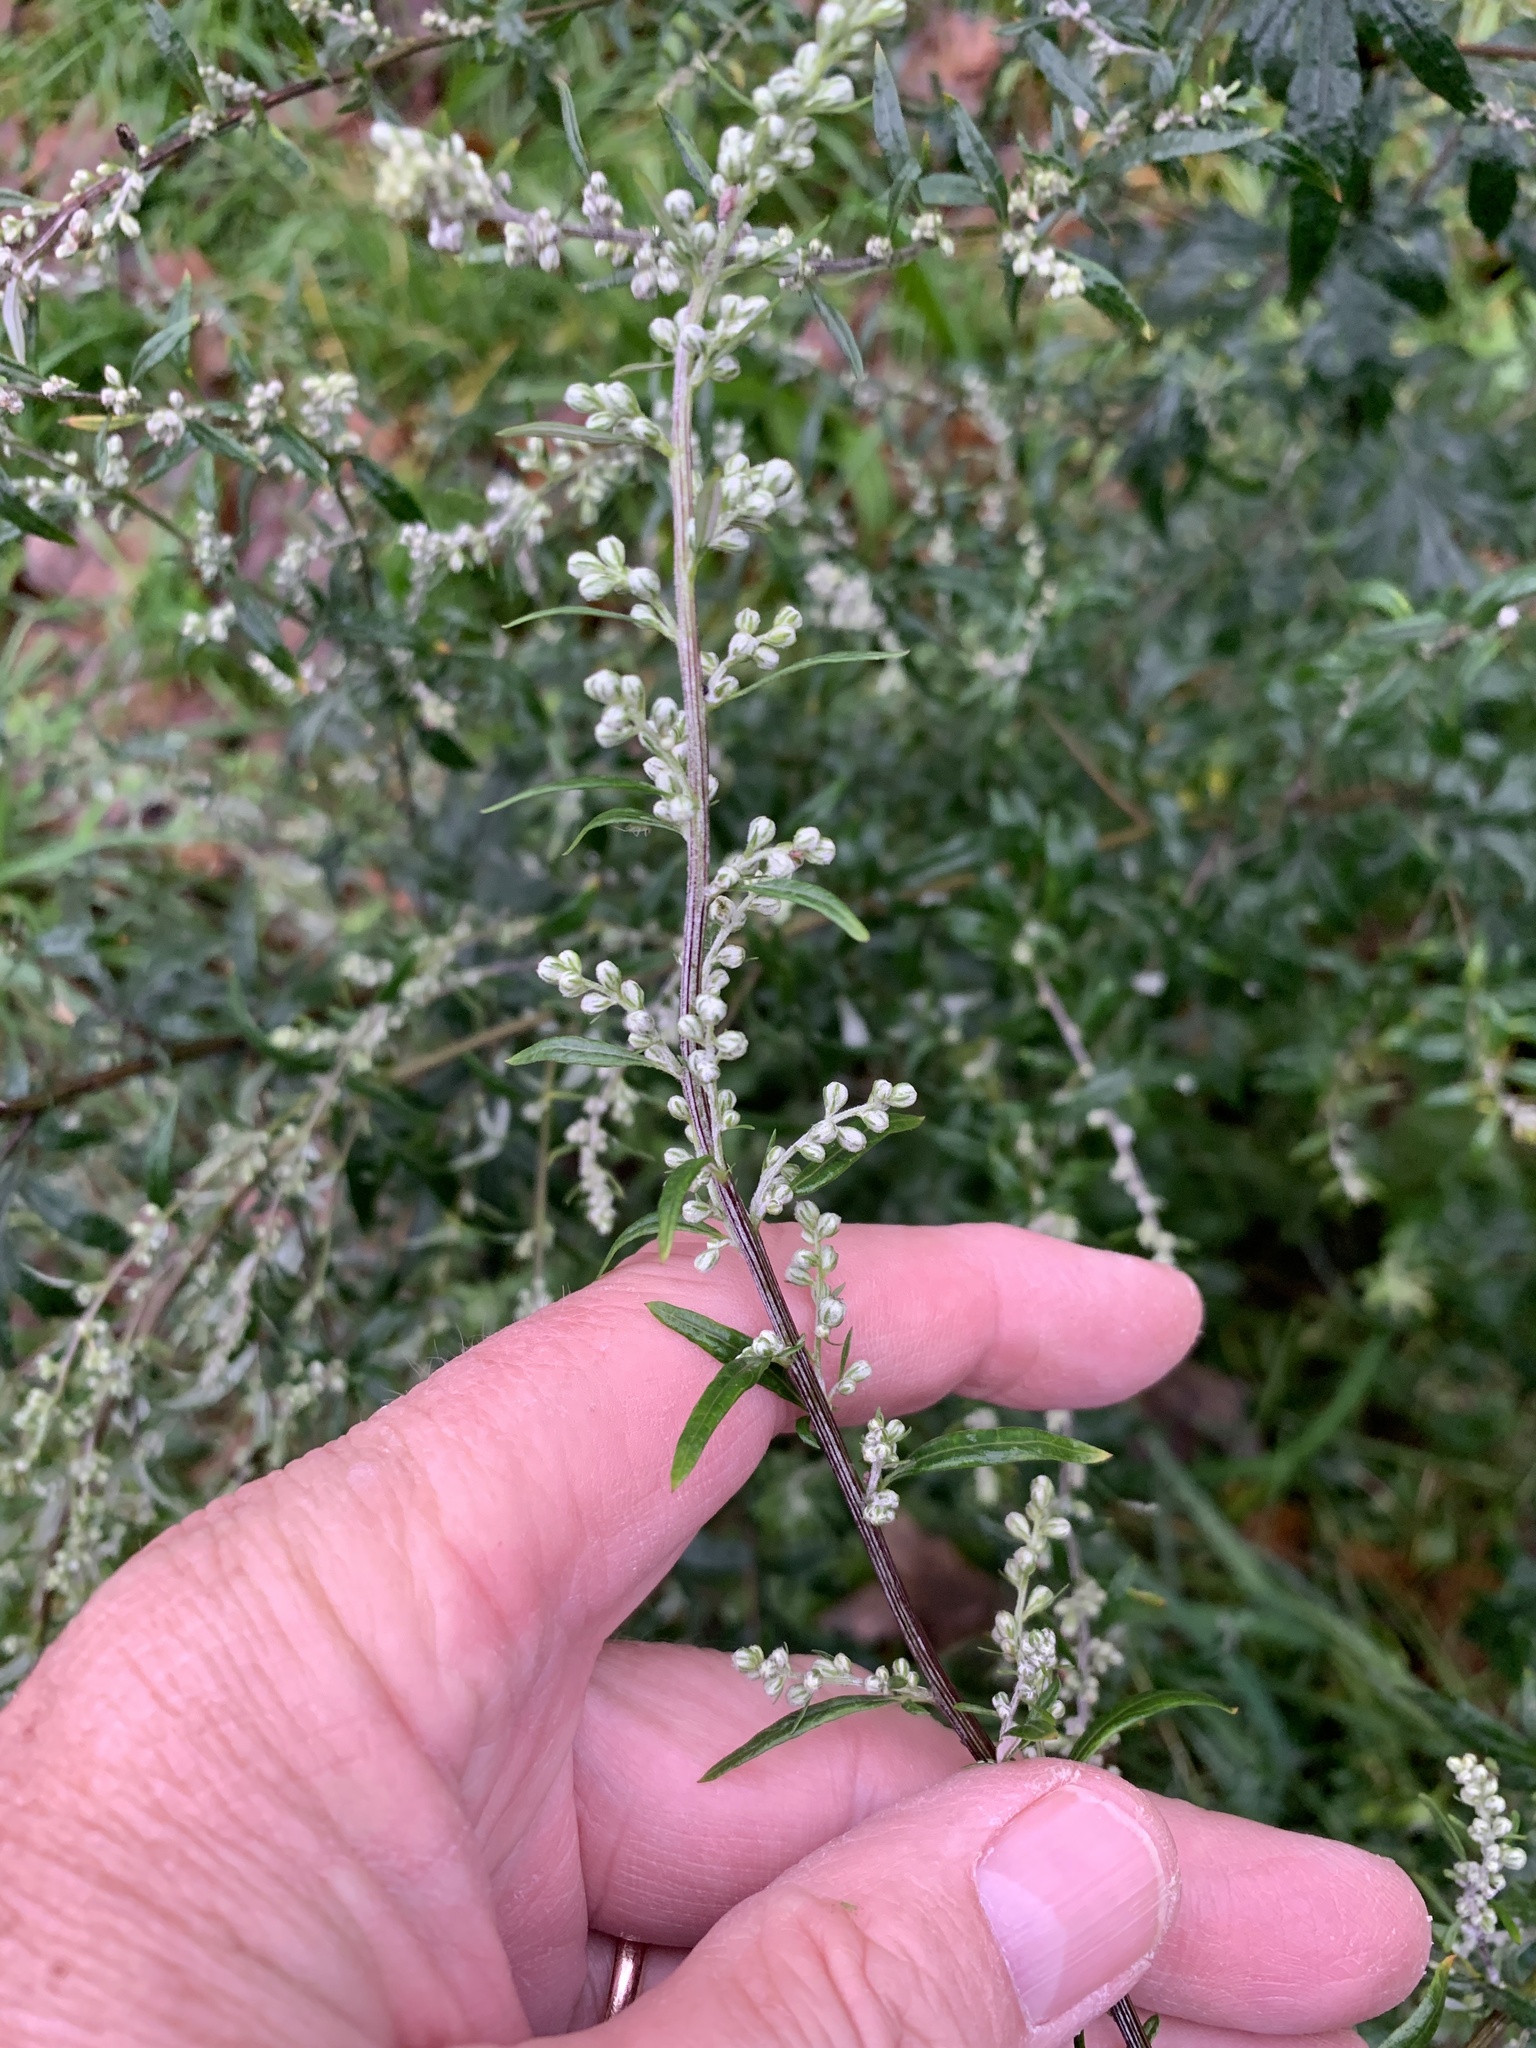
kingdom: Plantae
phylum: Tracheophyta
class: Magnoliopsida
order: Asterales
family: Asteraceae
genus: Artemisia
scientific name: Artemisia vulgaris
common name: Mugwort
